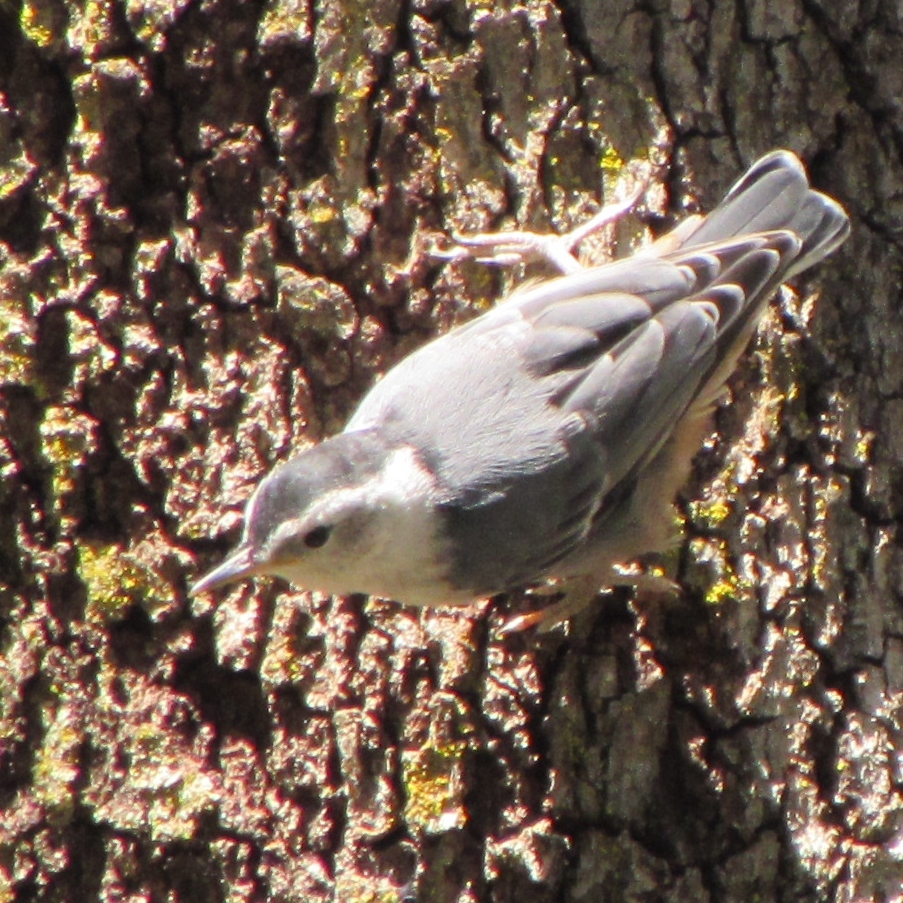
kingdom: Animalia
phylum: Chordata
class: Aves
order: Passeriformes
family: Sittidae
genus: Sitta
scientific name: Sitta carolinensis
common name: White-breasted nuthatch
